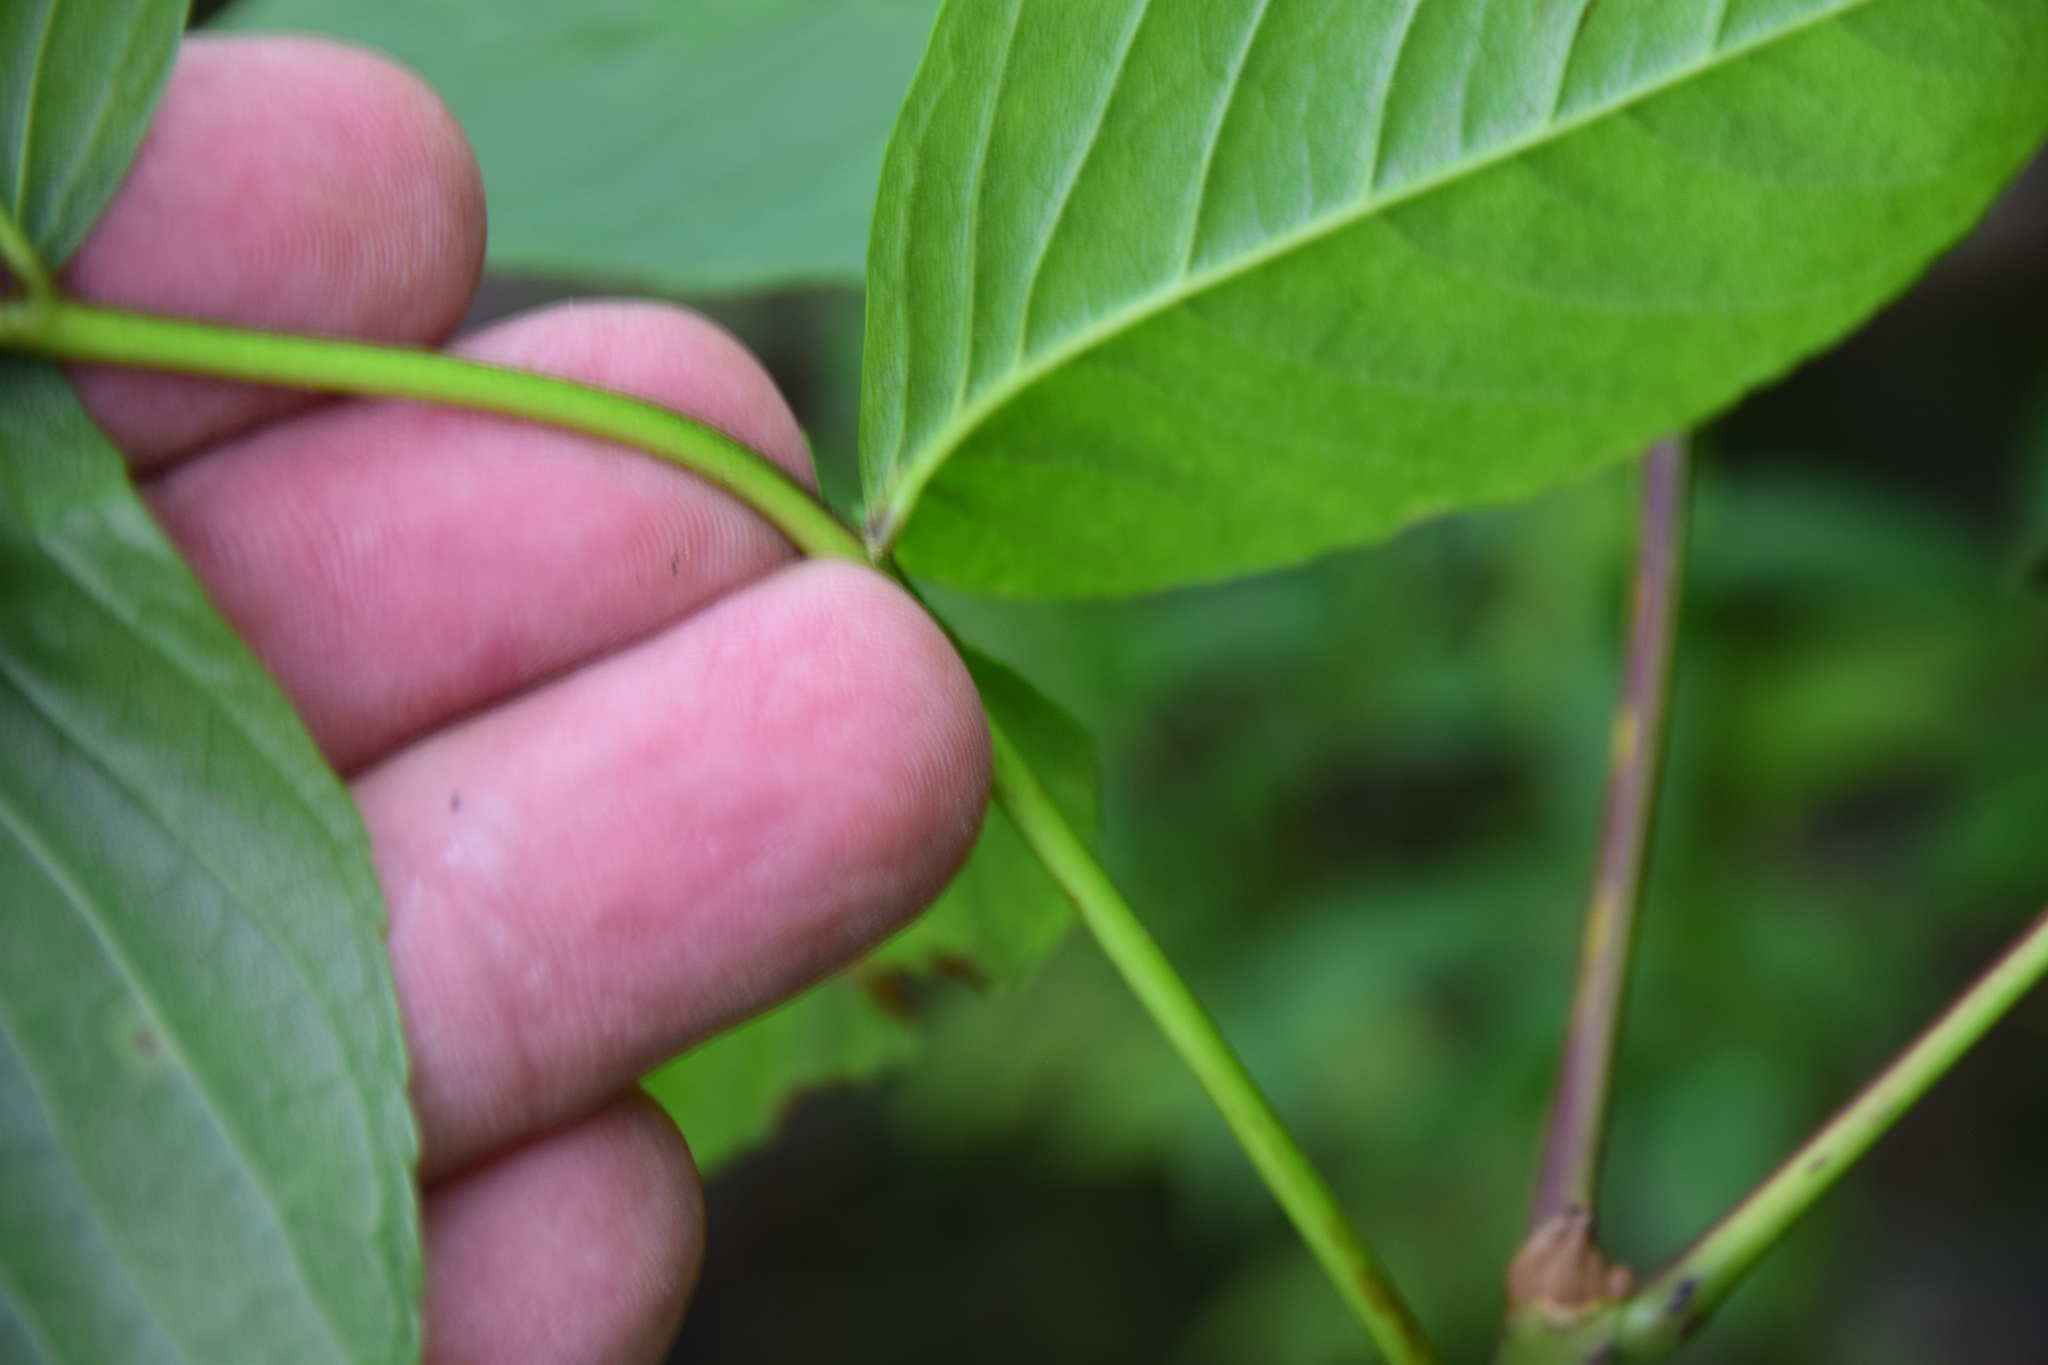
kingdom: Plantae
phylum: Tracheophyta
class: Magnoliopsida
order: Lamiales
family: Oleaceae
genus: Fraxinus
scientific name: Fraxinus nigra
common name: Black ash
